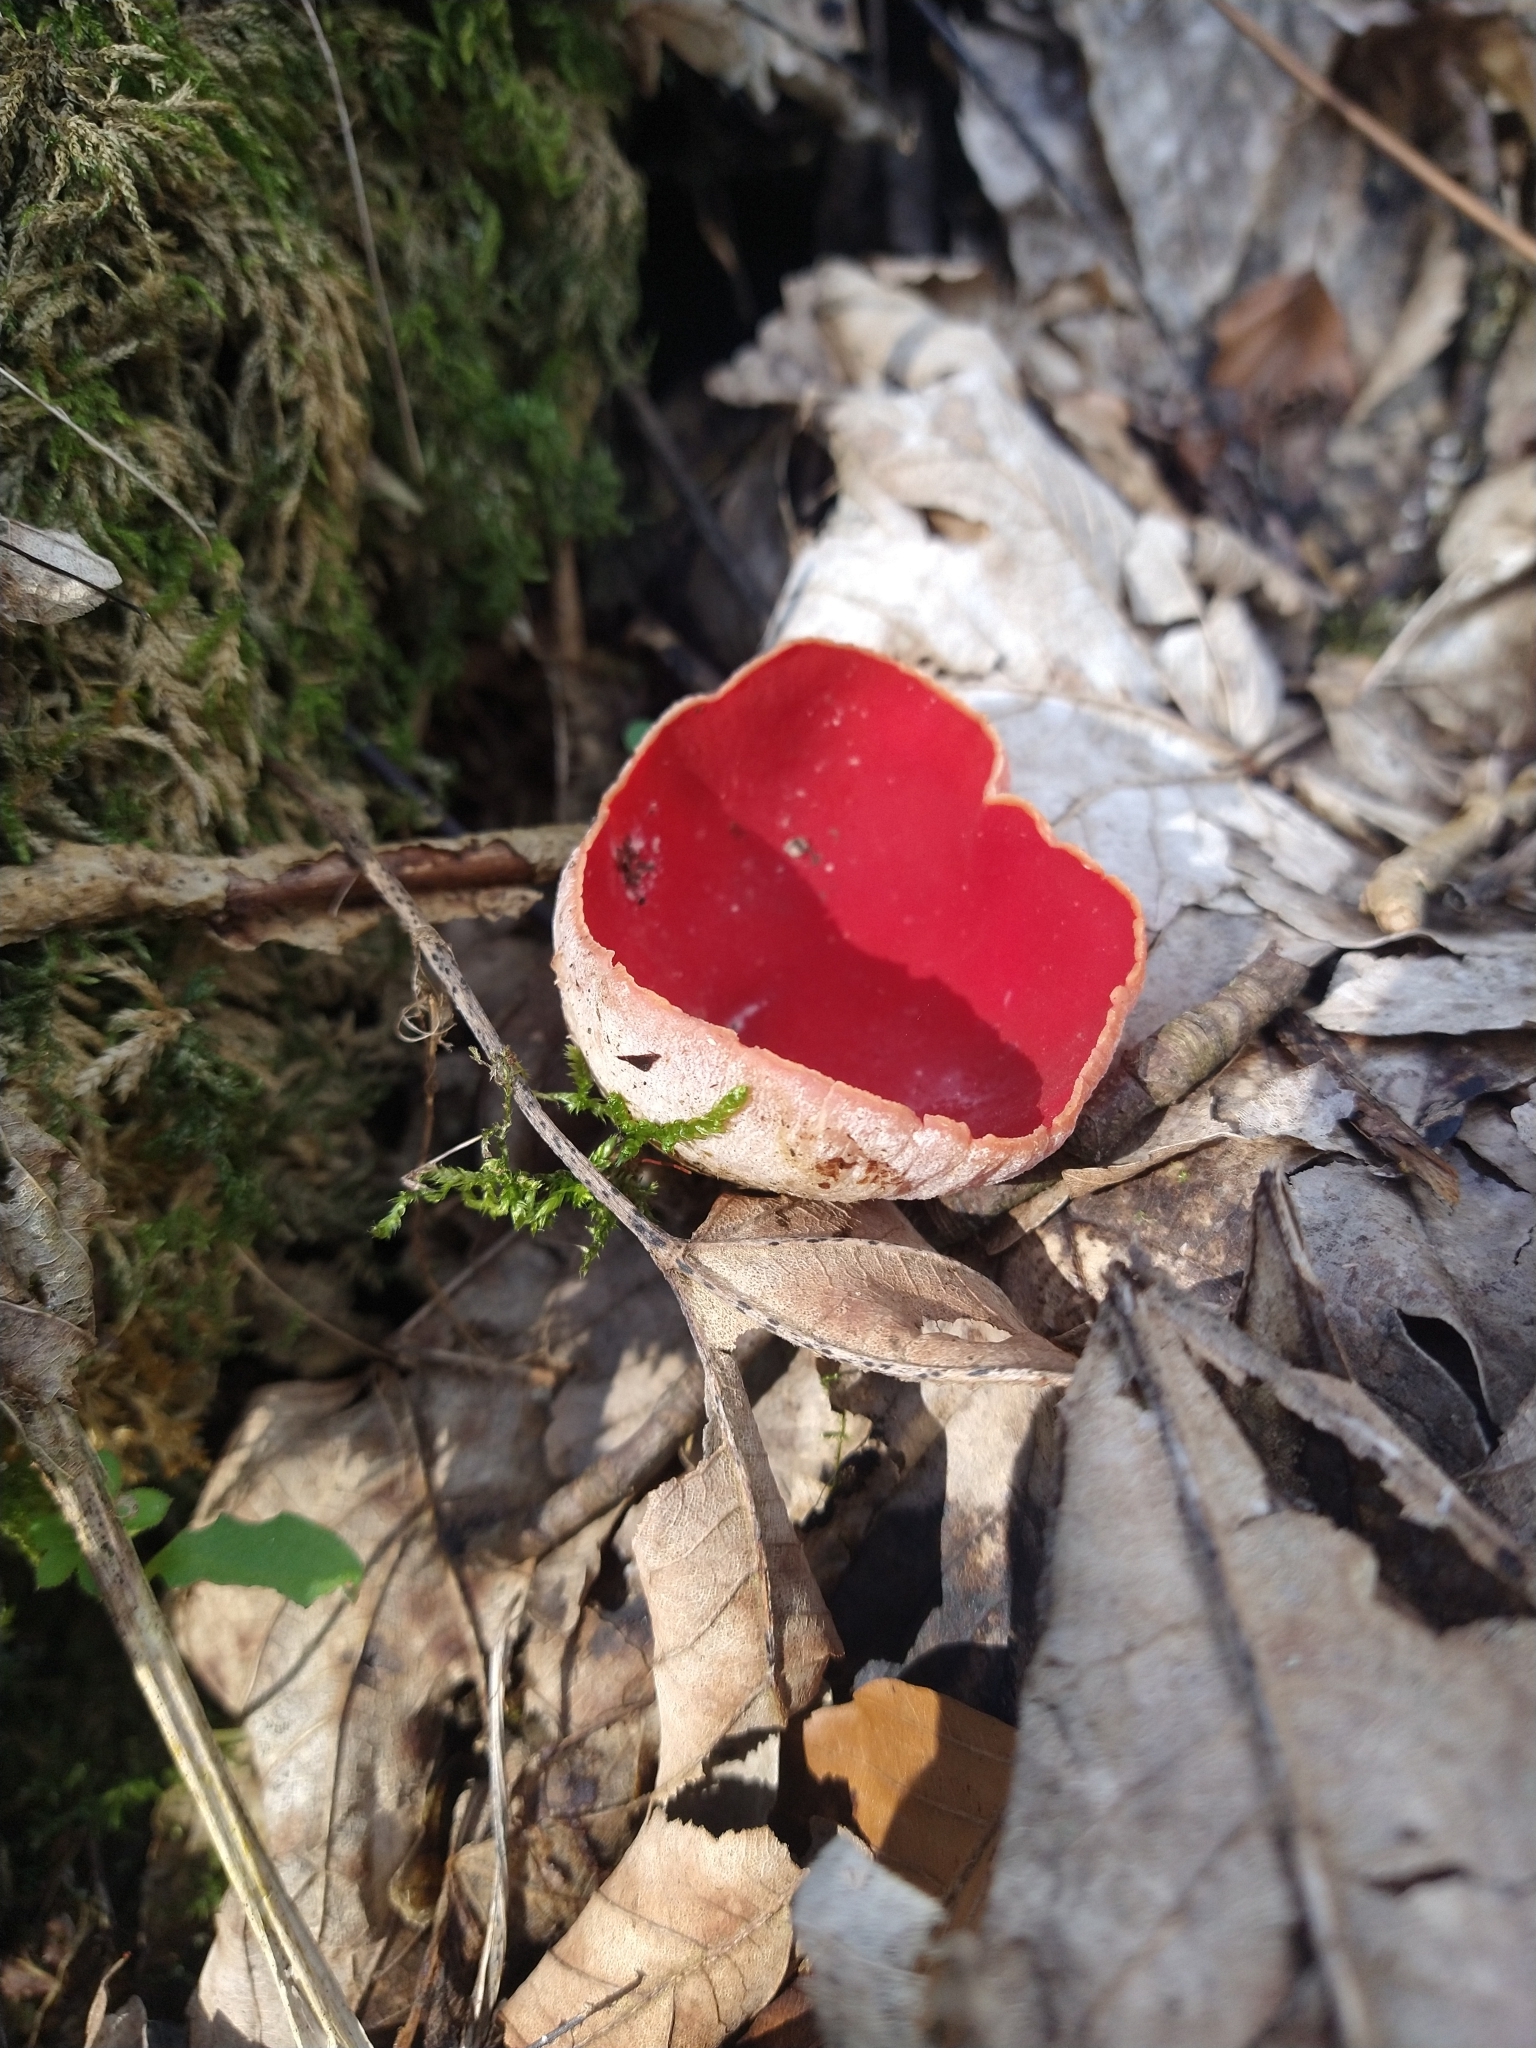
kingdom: Fungi
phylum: Ascomycota
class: Pezizomycetes
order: Pezizales
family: Sarcoscyphaceae
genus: Sarcoscypha
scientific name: Sarcoscypha
